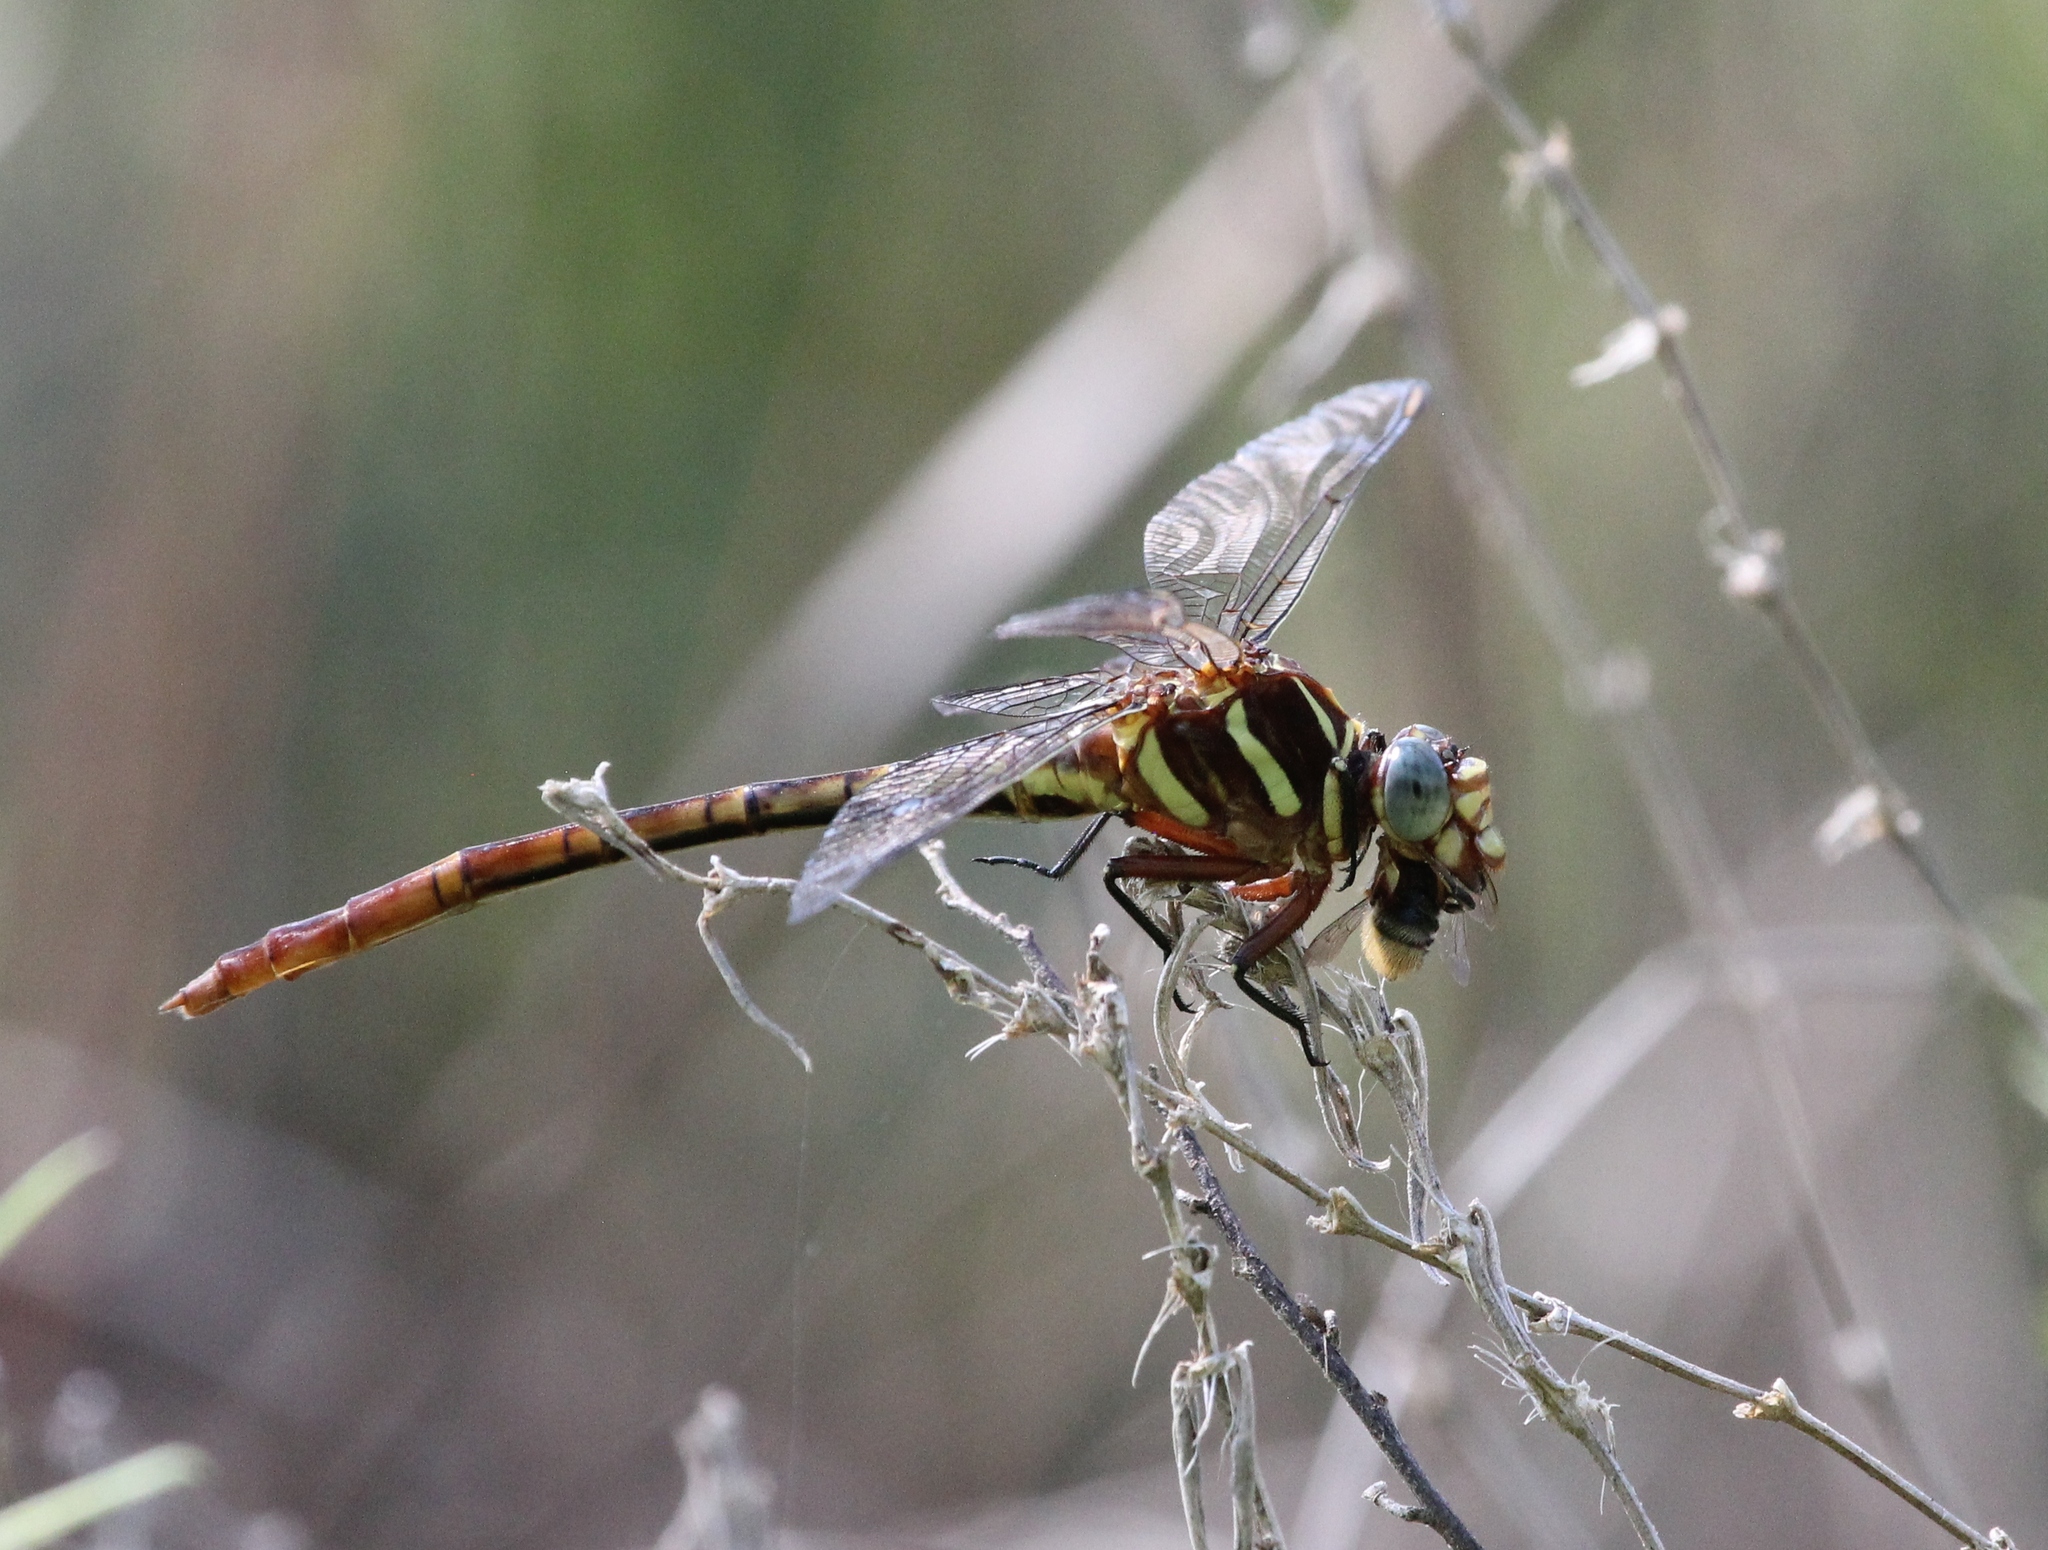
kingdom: Animalia
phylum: Arthropoda
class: Insecta
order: Odonata
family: Gomphidae
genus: Aphylla
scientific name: Aphylla williamsoni
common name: Two-striped forceptail
